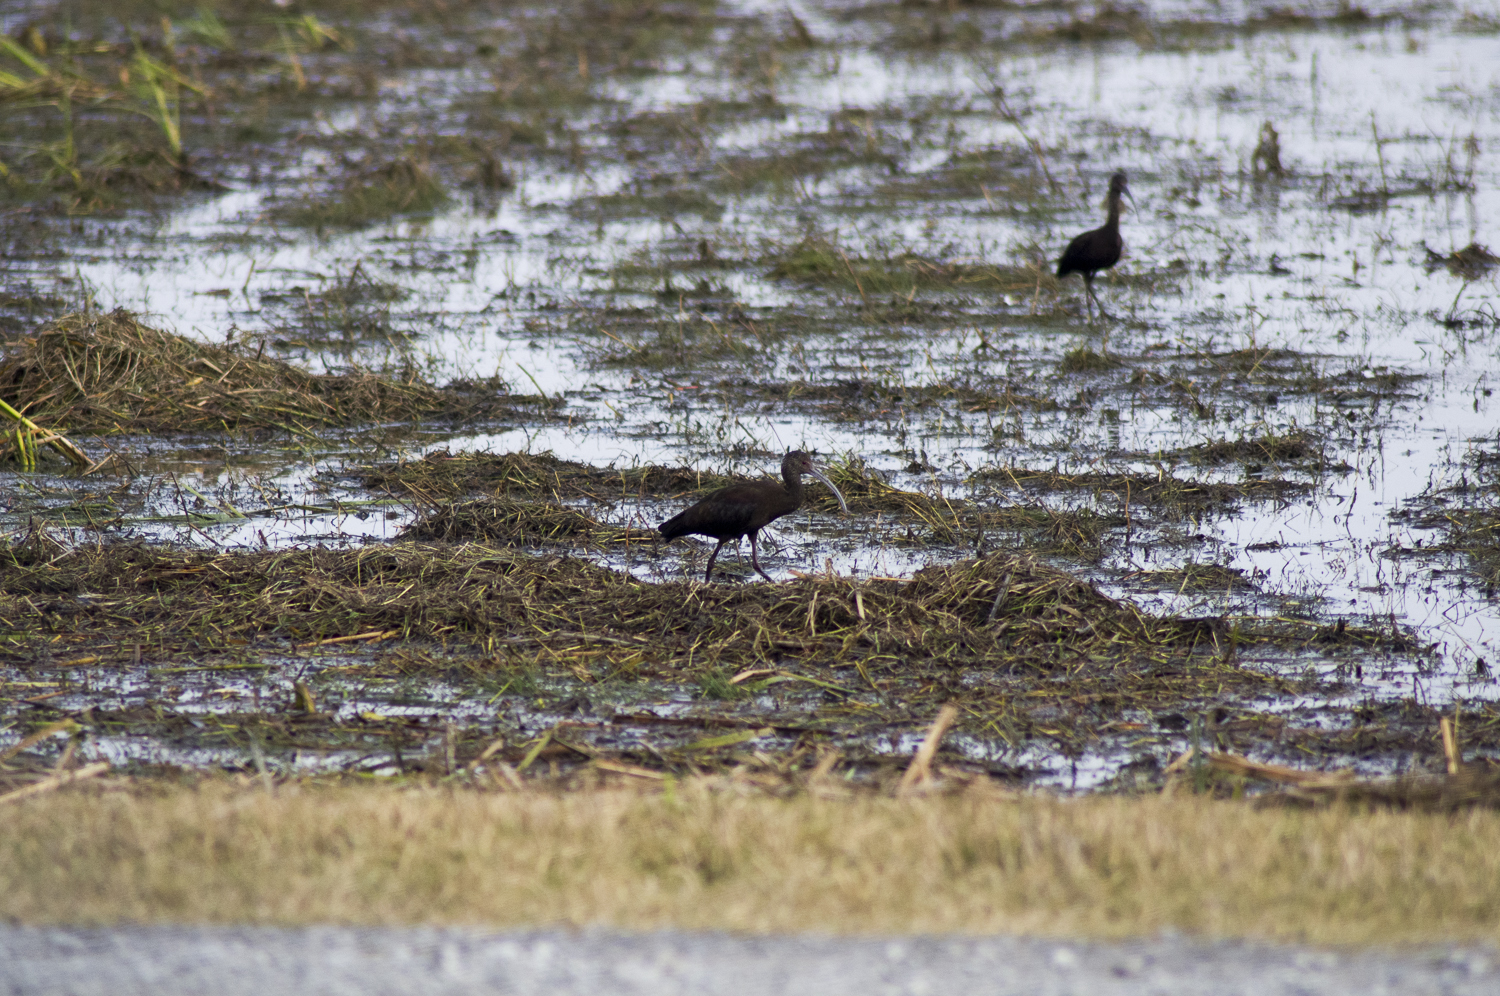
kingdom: Animalia
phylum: Chordata
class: Aves
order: Pelecaniformes
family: Threskiornithidae
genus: Plegadis
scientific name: Plegadis chihi
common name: White-faced ibis
